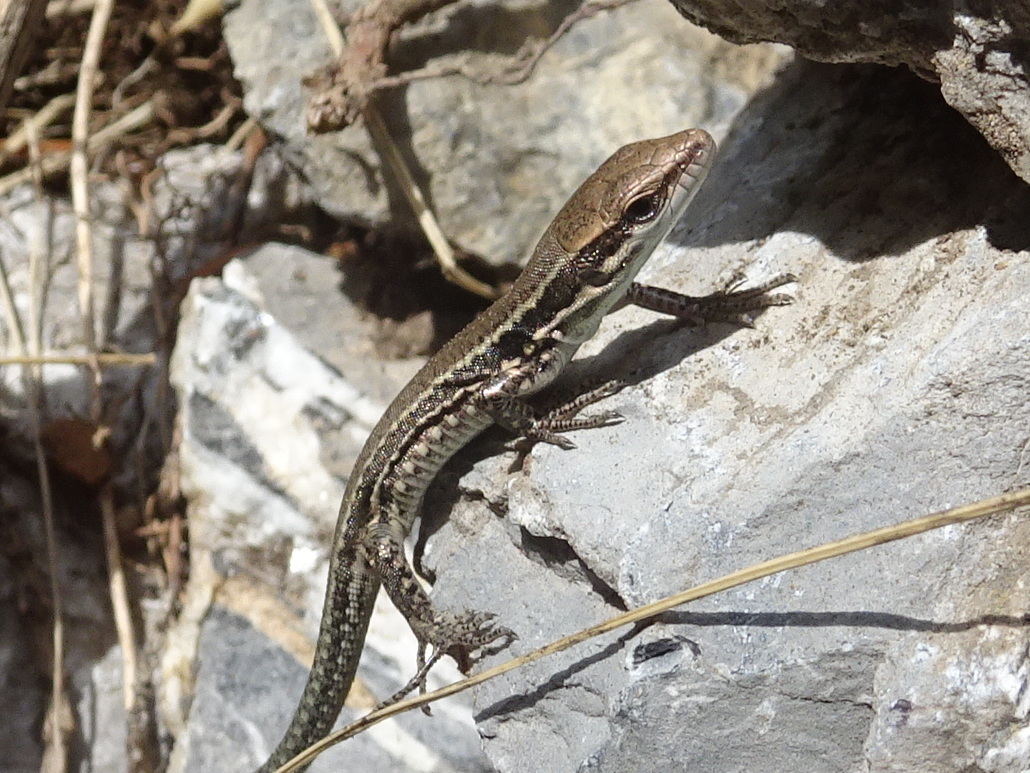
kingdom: Animalia
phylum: Chordata
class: Squamata
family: Lacertidae
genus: Podarcis
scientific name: Podarcis muralis
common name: Common wall lizard
